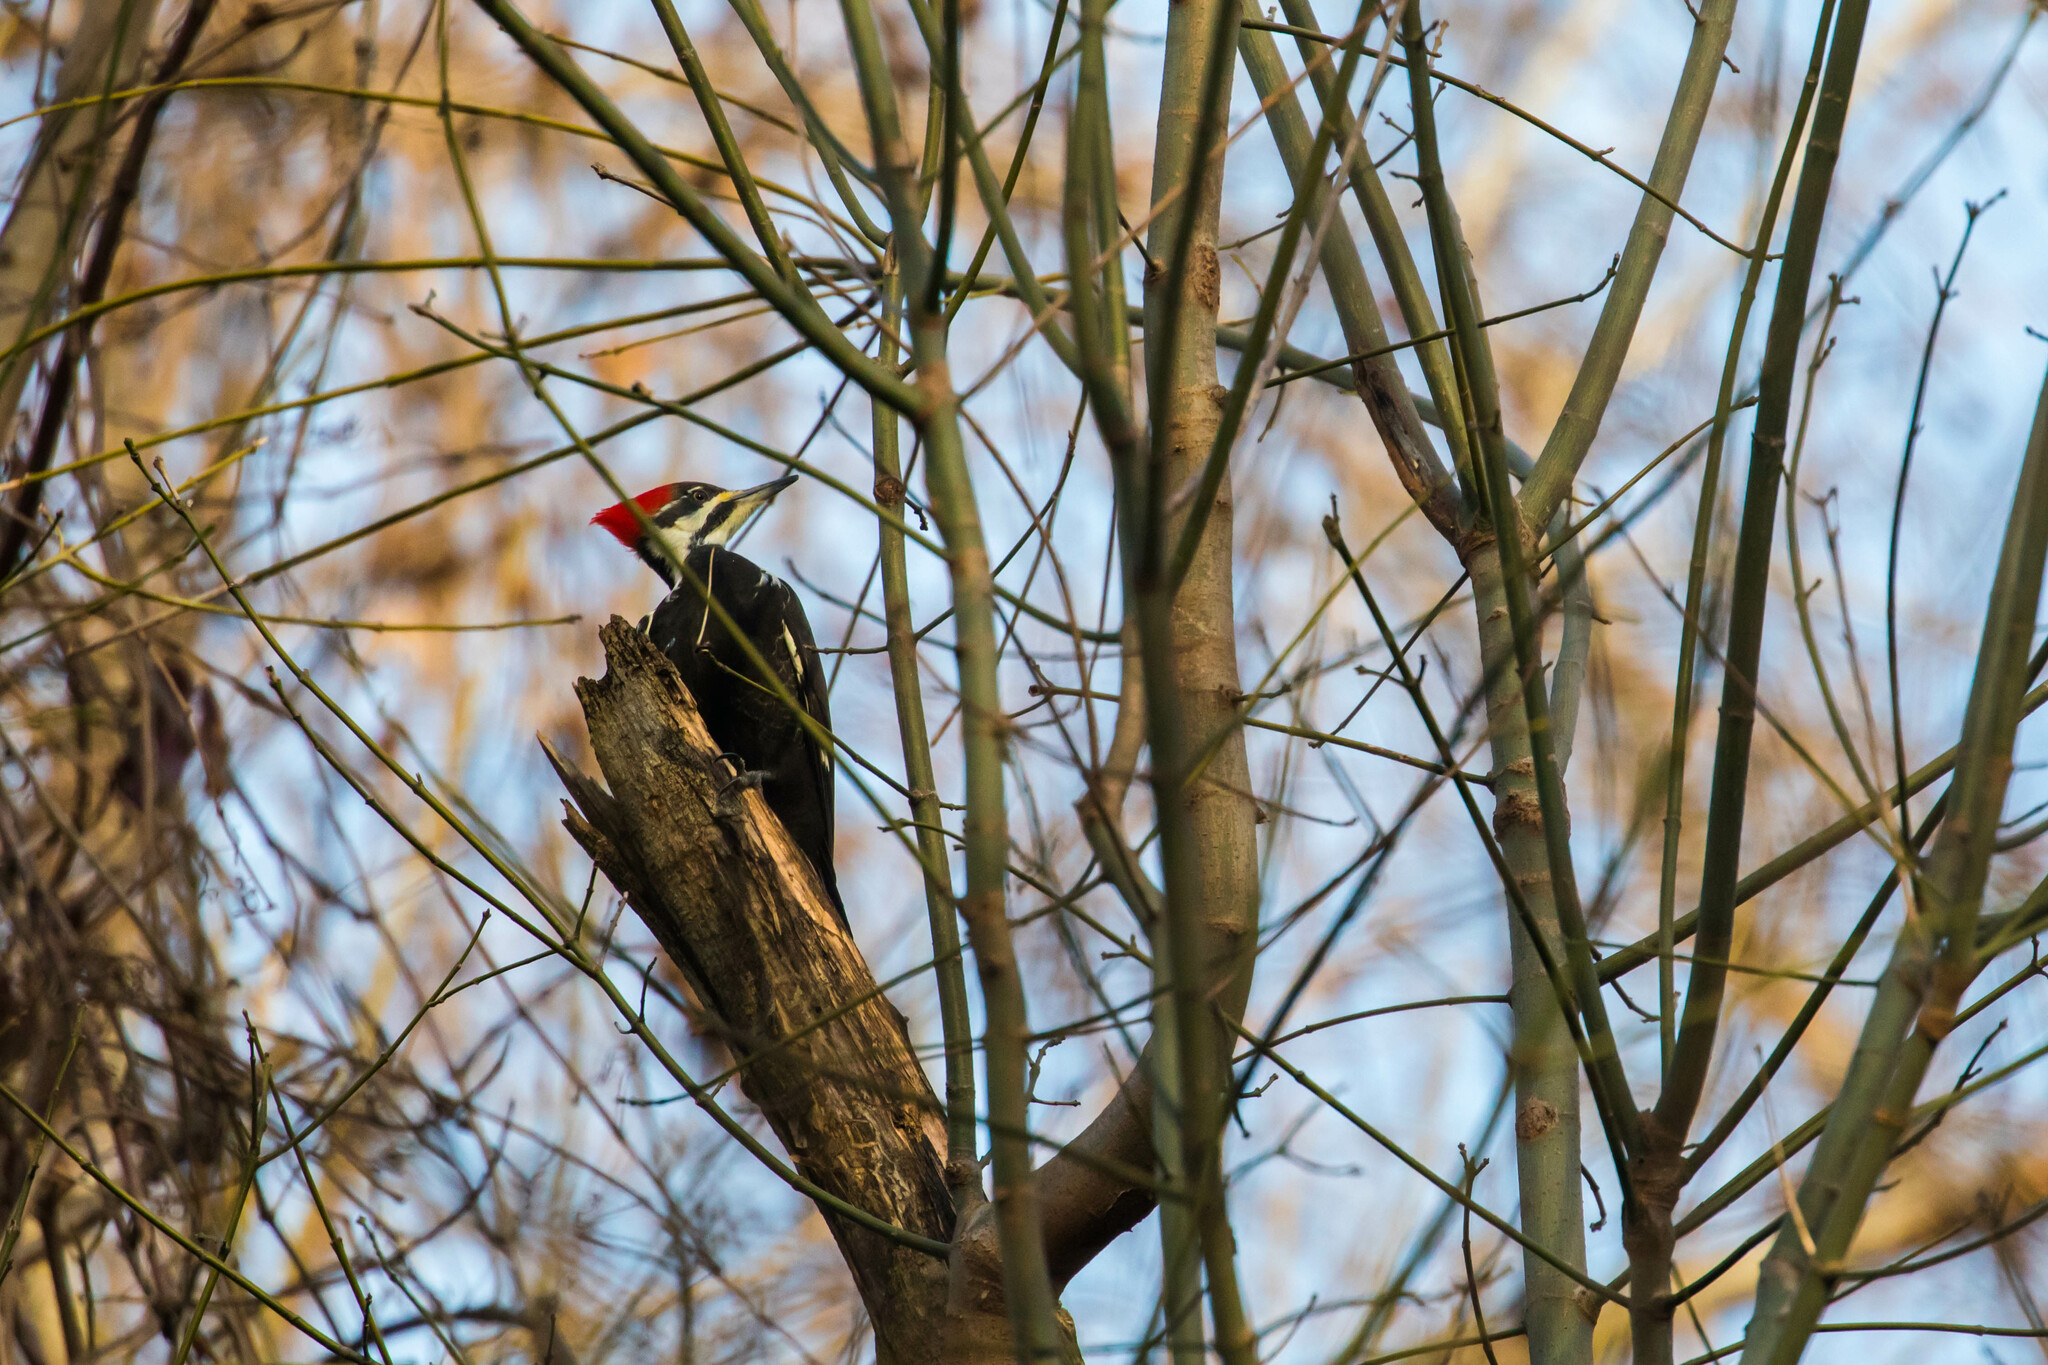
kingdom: Animalia
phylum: Chordata
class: Aves
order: Piciformes
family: Picidae
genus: Dryocopus
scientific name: Dryocopus pileatus
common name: Pileated woodpecker
